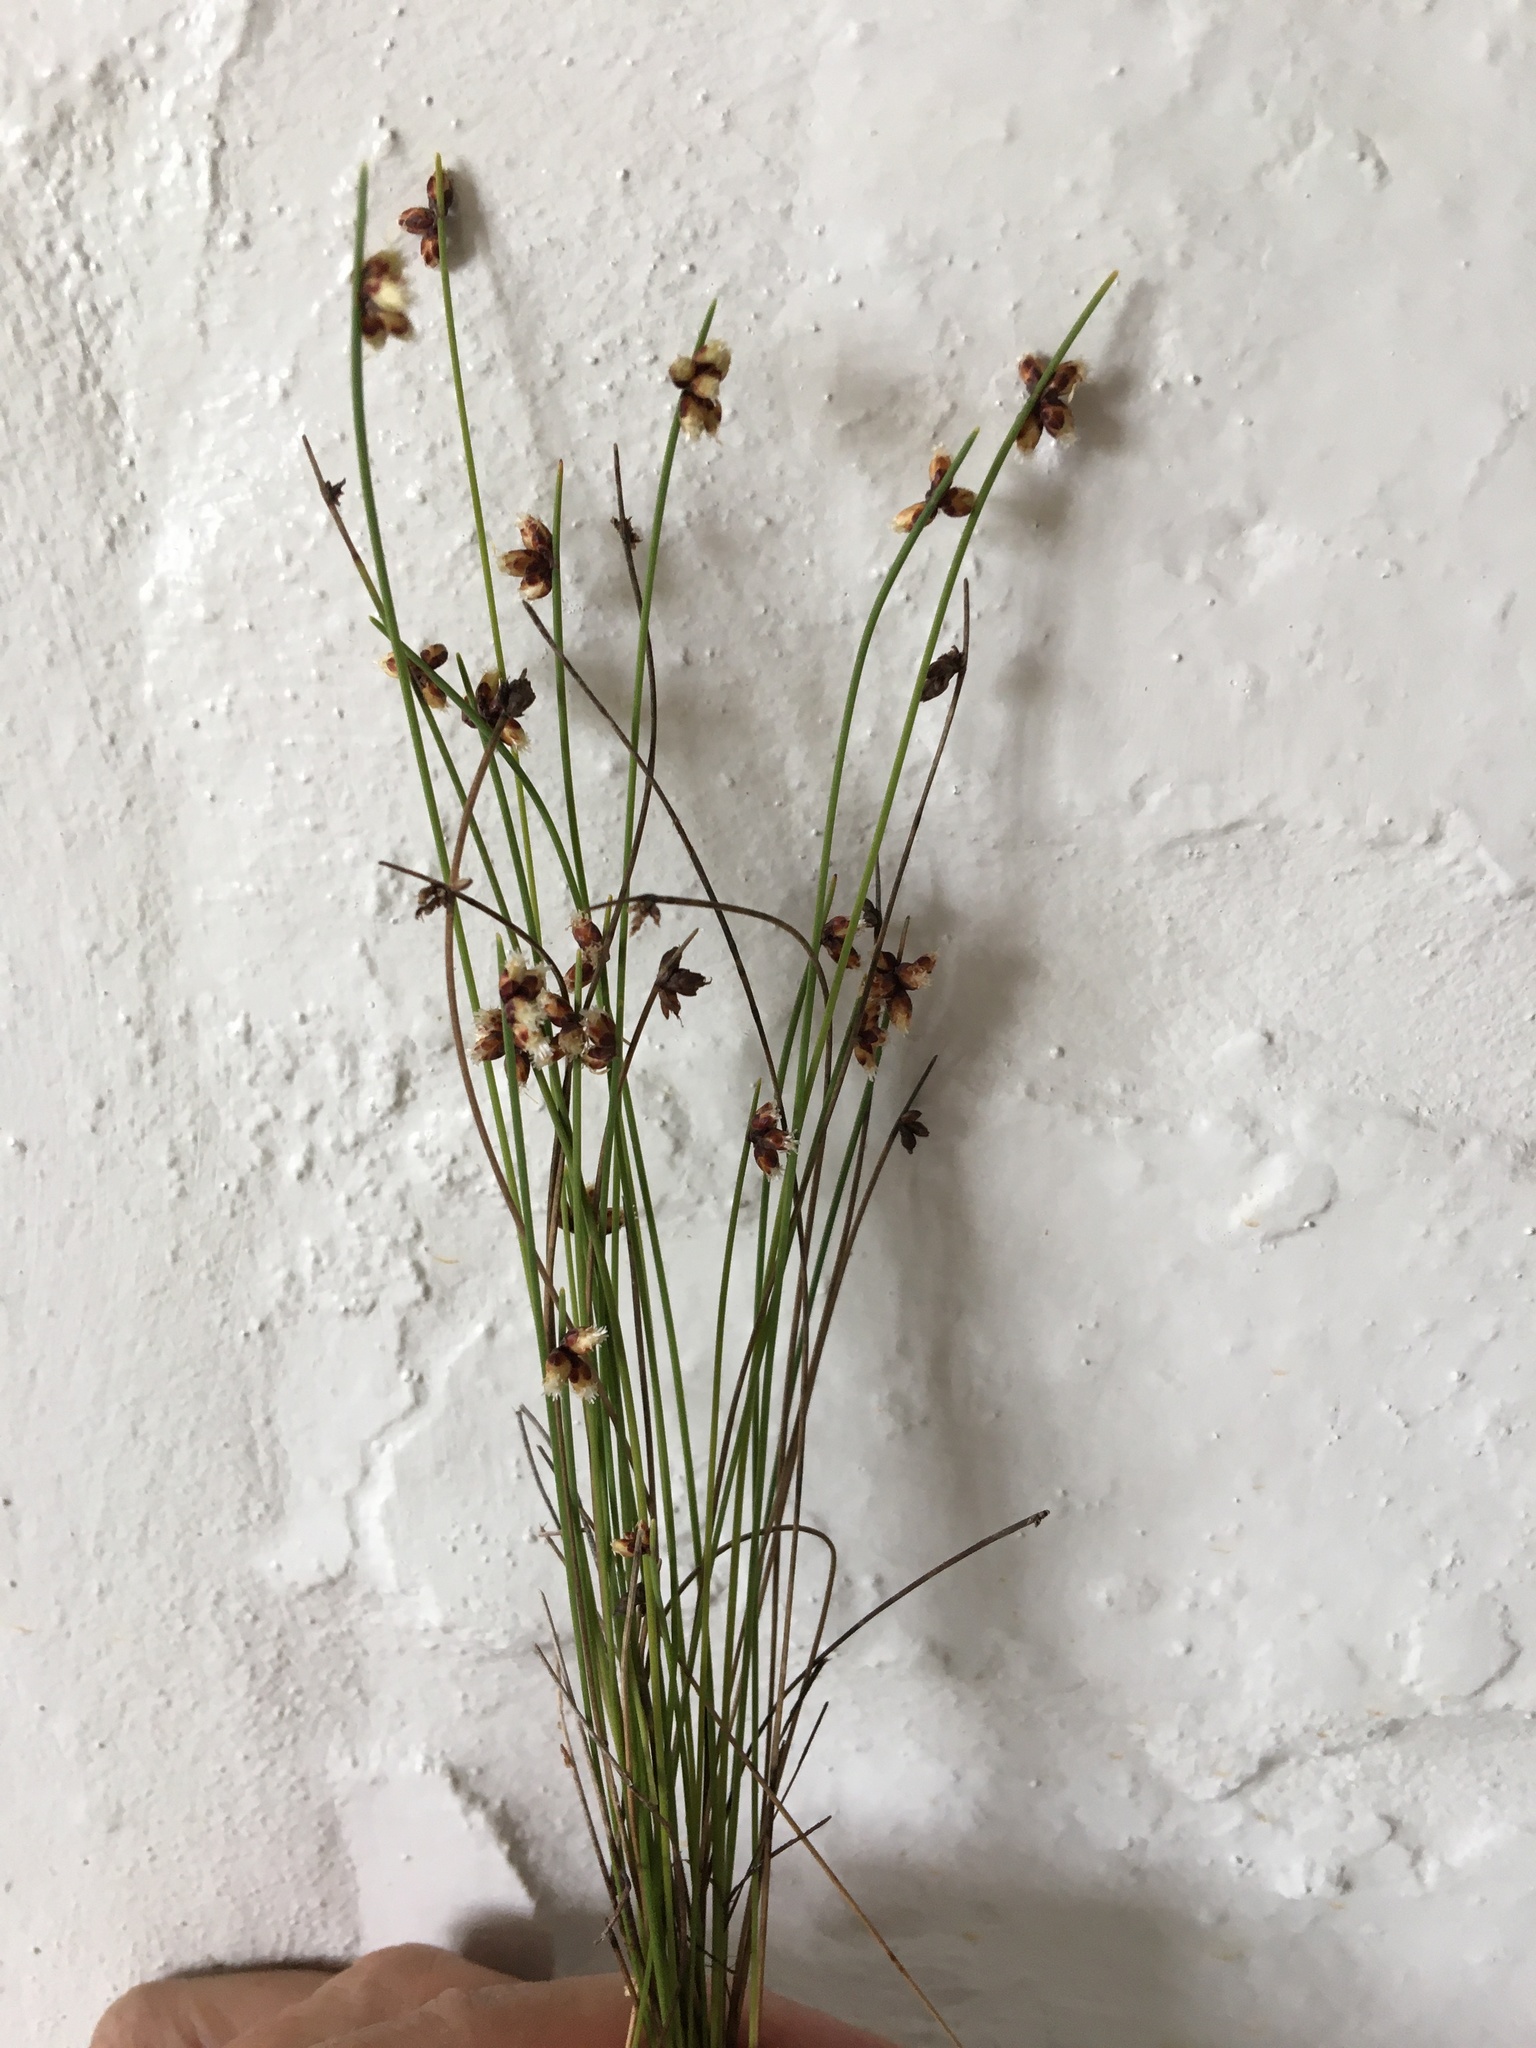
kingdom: Plantae
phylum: Tracheophyta
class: Liliopsida
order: Poales
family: Cyperaceae
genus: Ficinia
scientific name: Ficinia lateralis
